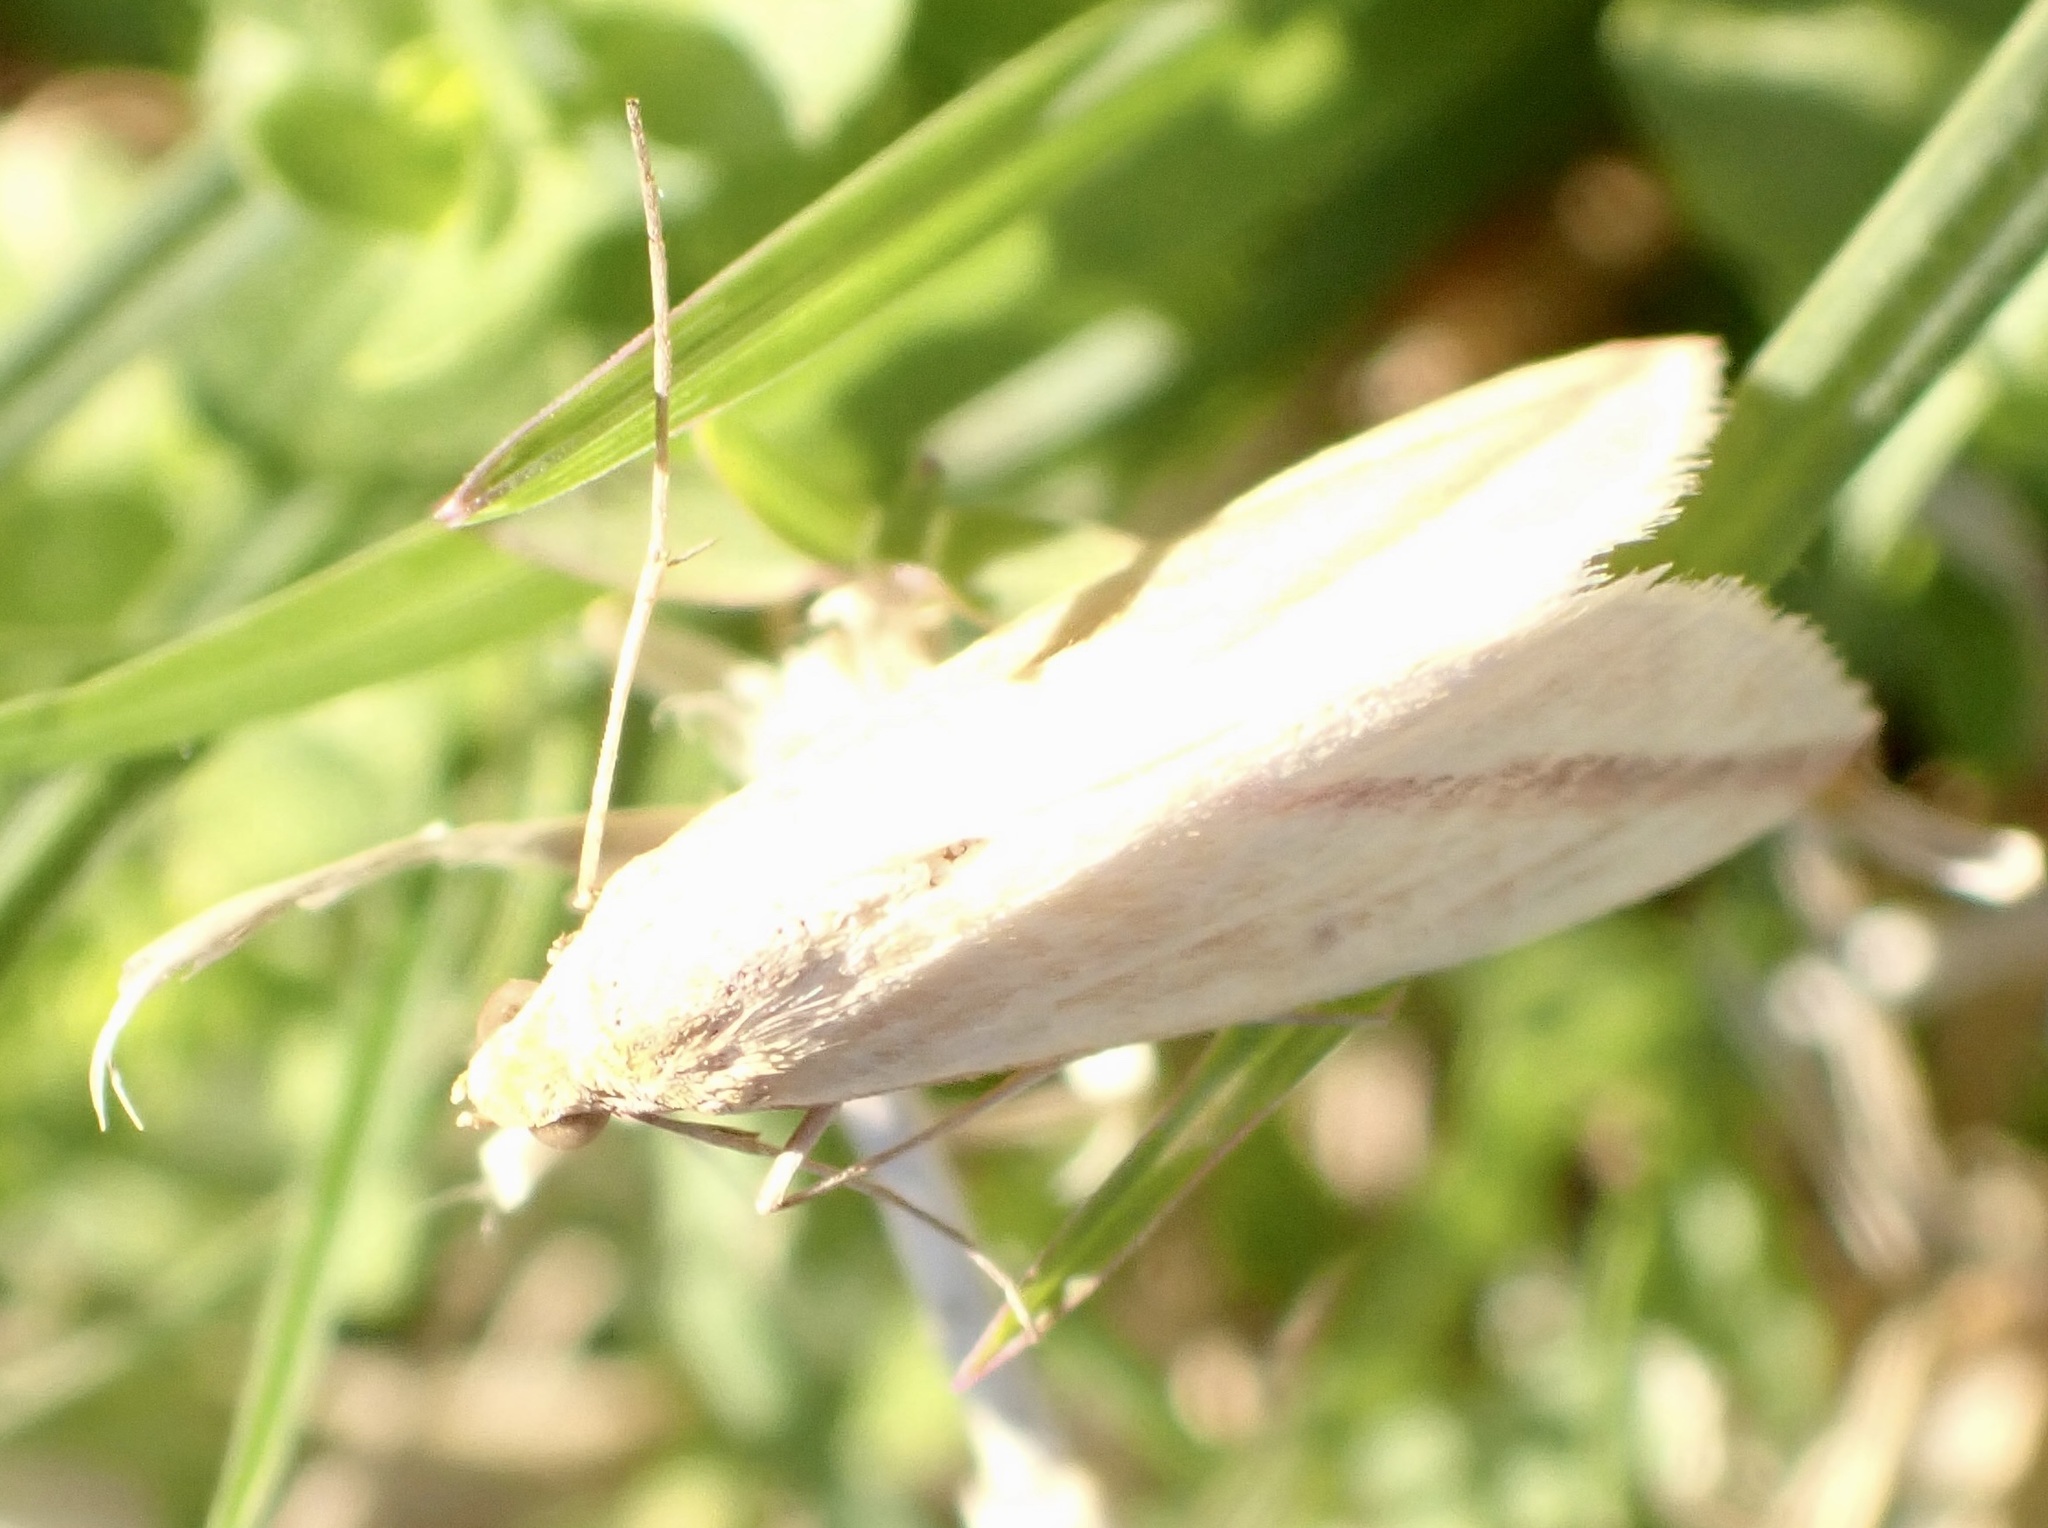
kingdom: Animalia
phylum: Arthropoda
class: Insecta
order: Lepidoptera
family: Geometridae
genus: Rhodometra
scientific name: Rhodometra sacraria
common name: Vestal
